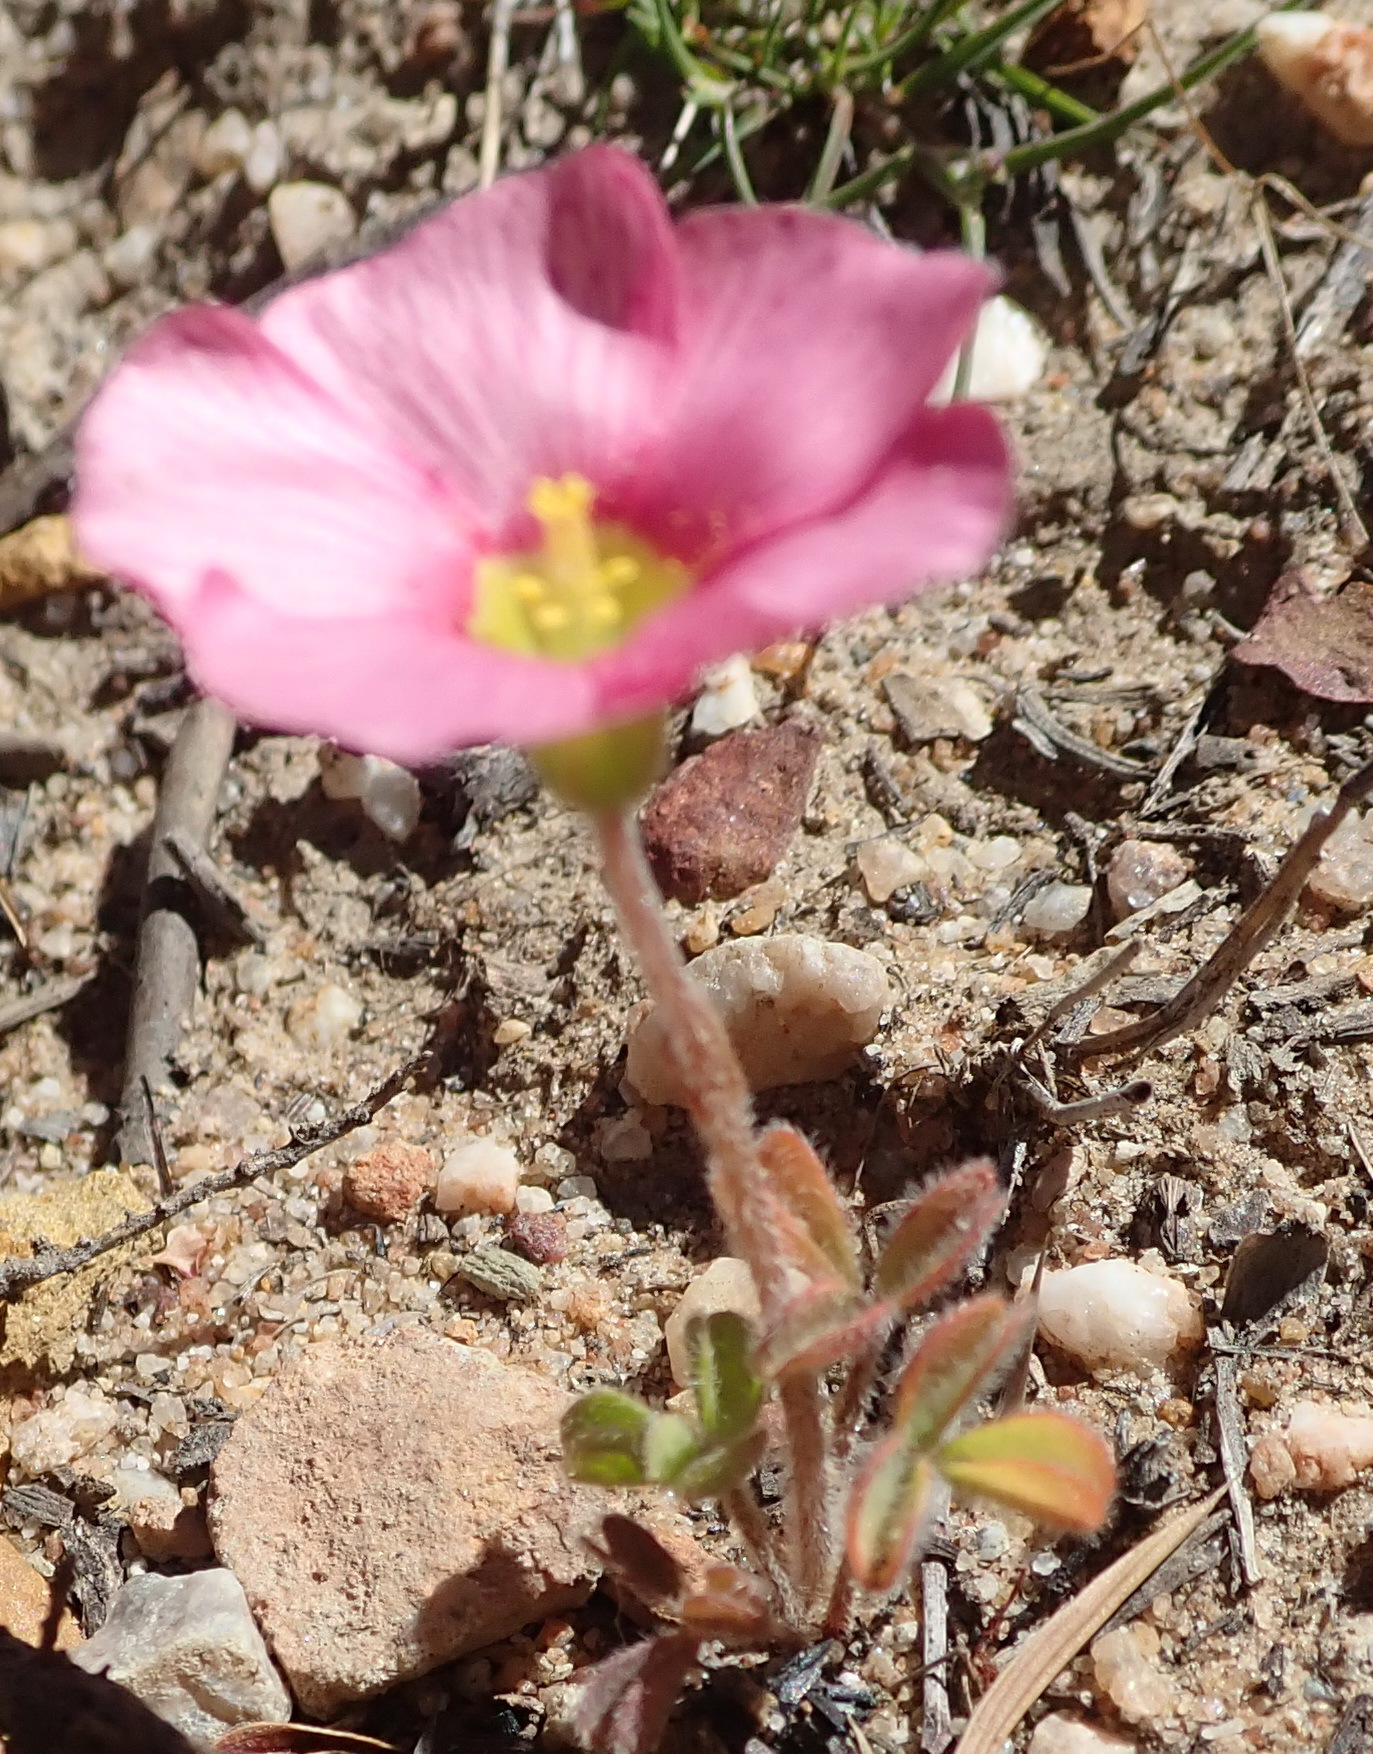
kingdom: Plantae
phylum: Tracheophyta
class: Magnoliopsida
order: Oxalidales
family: Oxalidaceae
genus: Oxalis
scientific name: Oxalis obtusa
